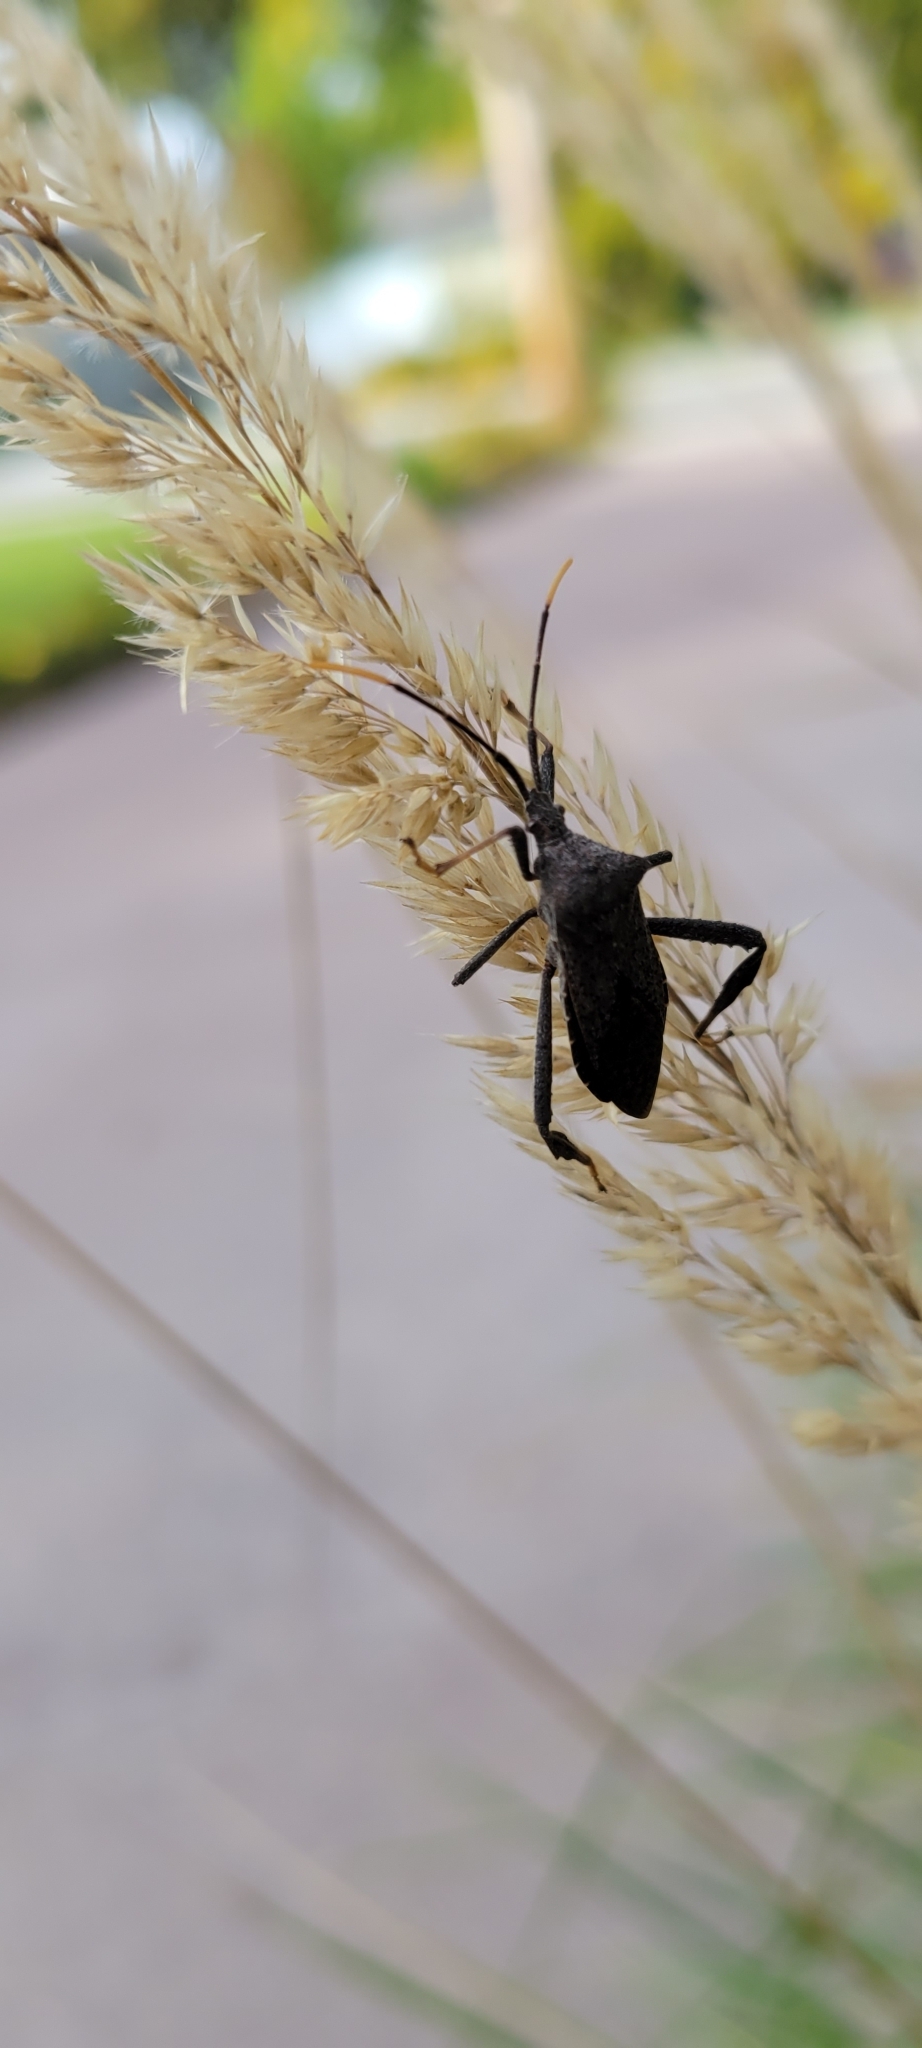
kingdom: Animalia
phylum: Arthropoda
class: Insecta
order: Hemiptera
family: Coreidae
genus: Acanthocephala
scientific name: Acanthocephala terminalis
